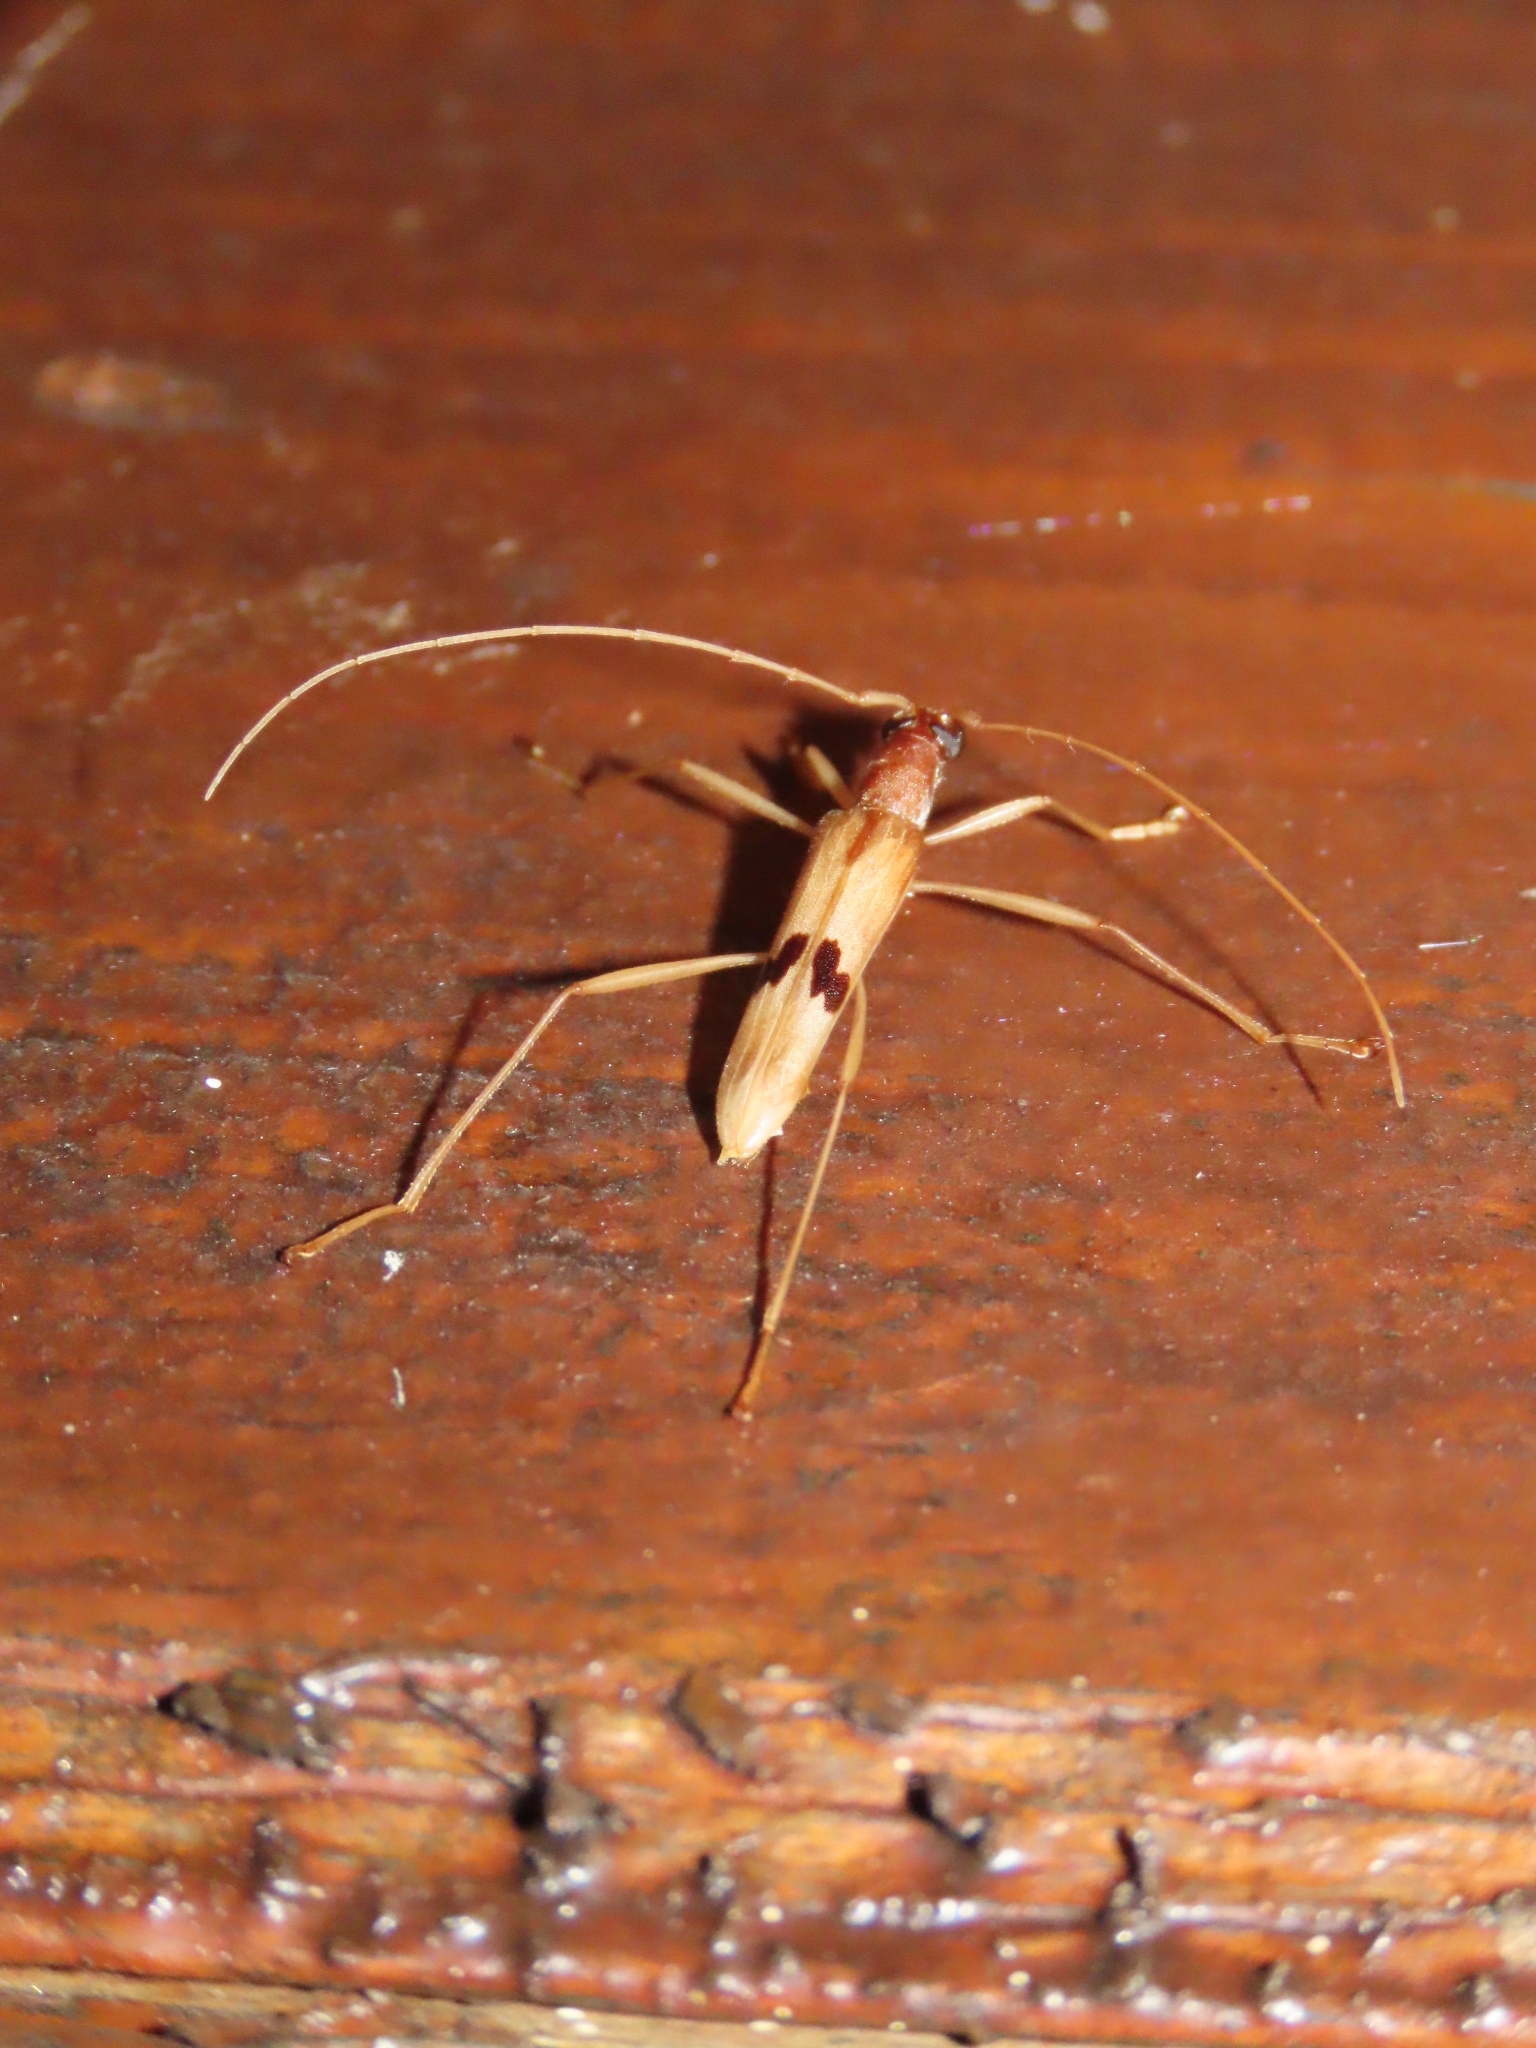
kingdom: Animalia
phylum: Arthropoda
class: Insecta
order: Coleoptera
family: Cerambycidae
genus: Leptoxenus
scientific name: Leptoxenus bimaculatus
